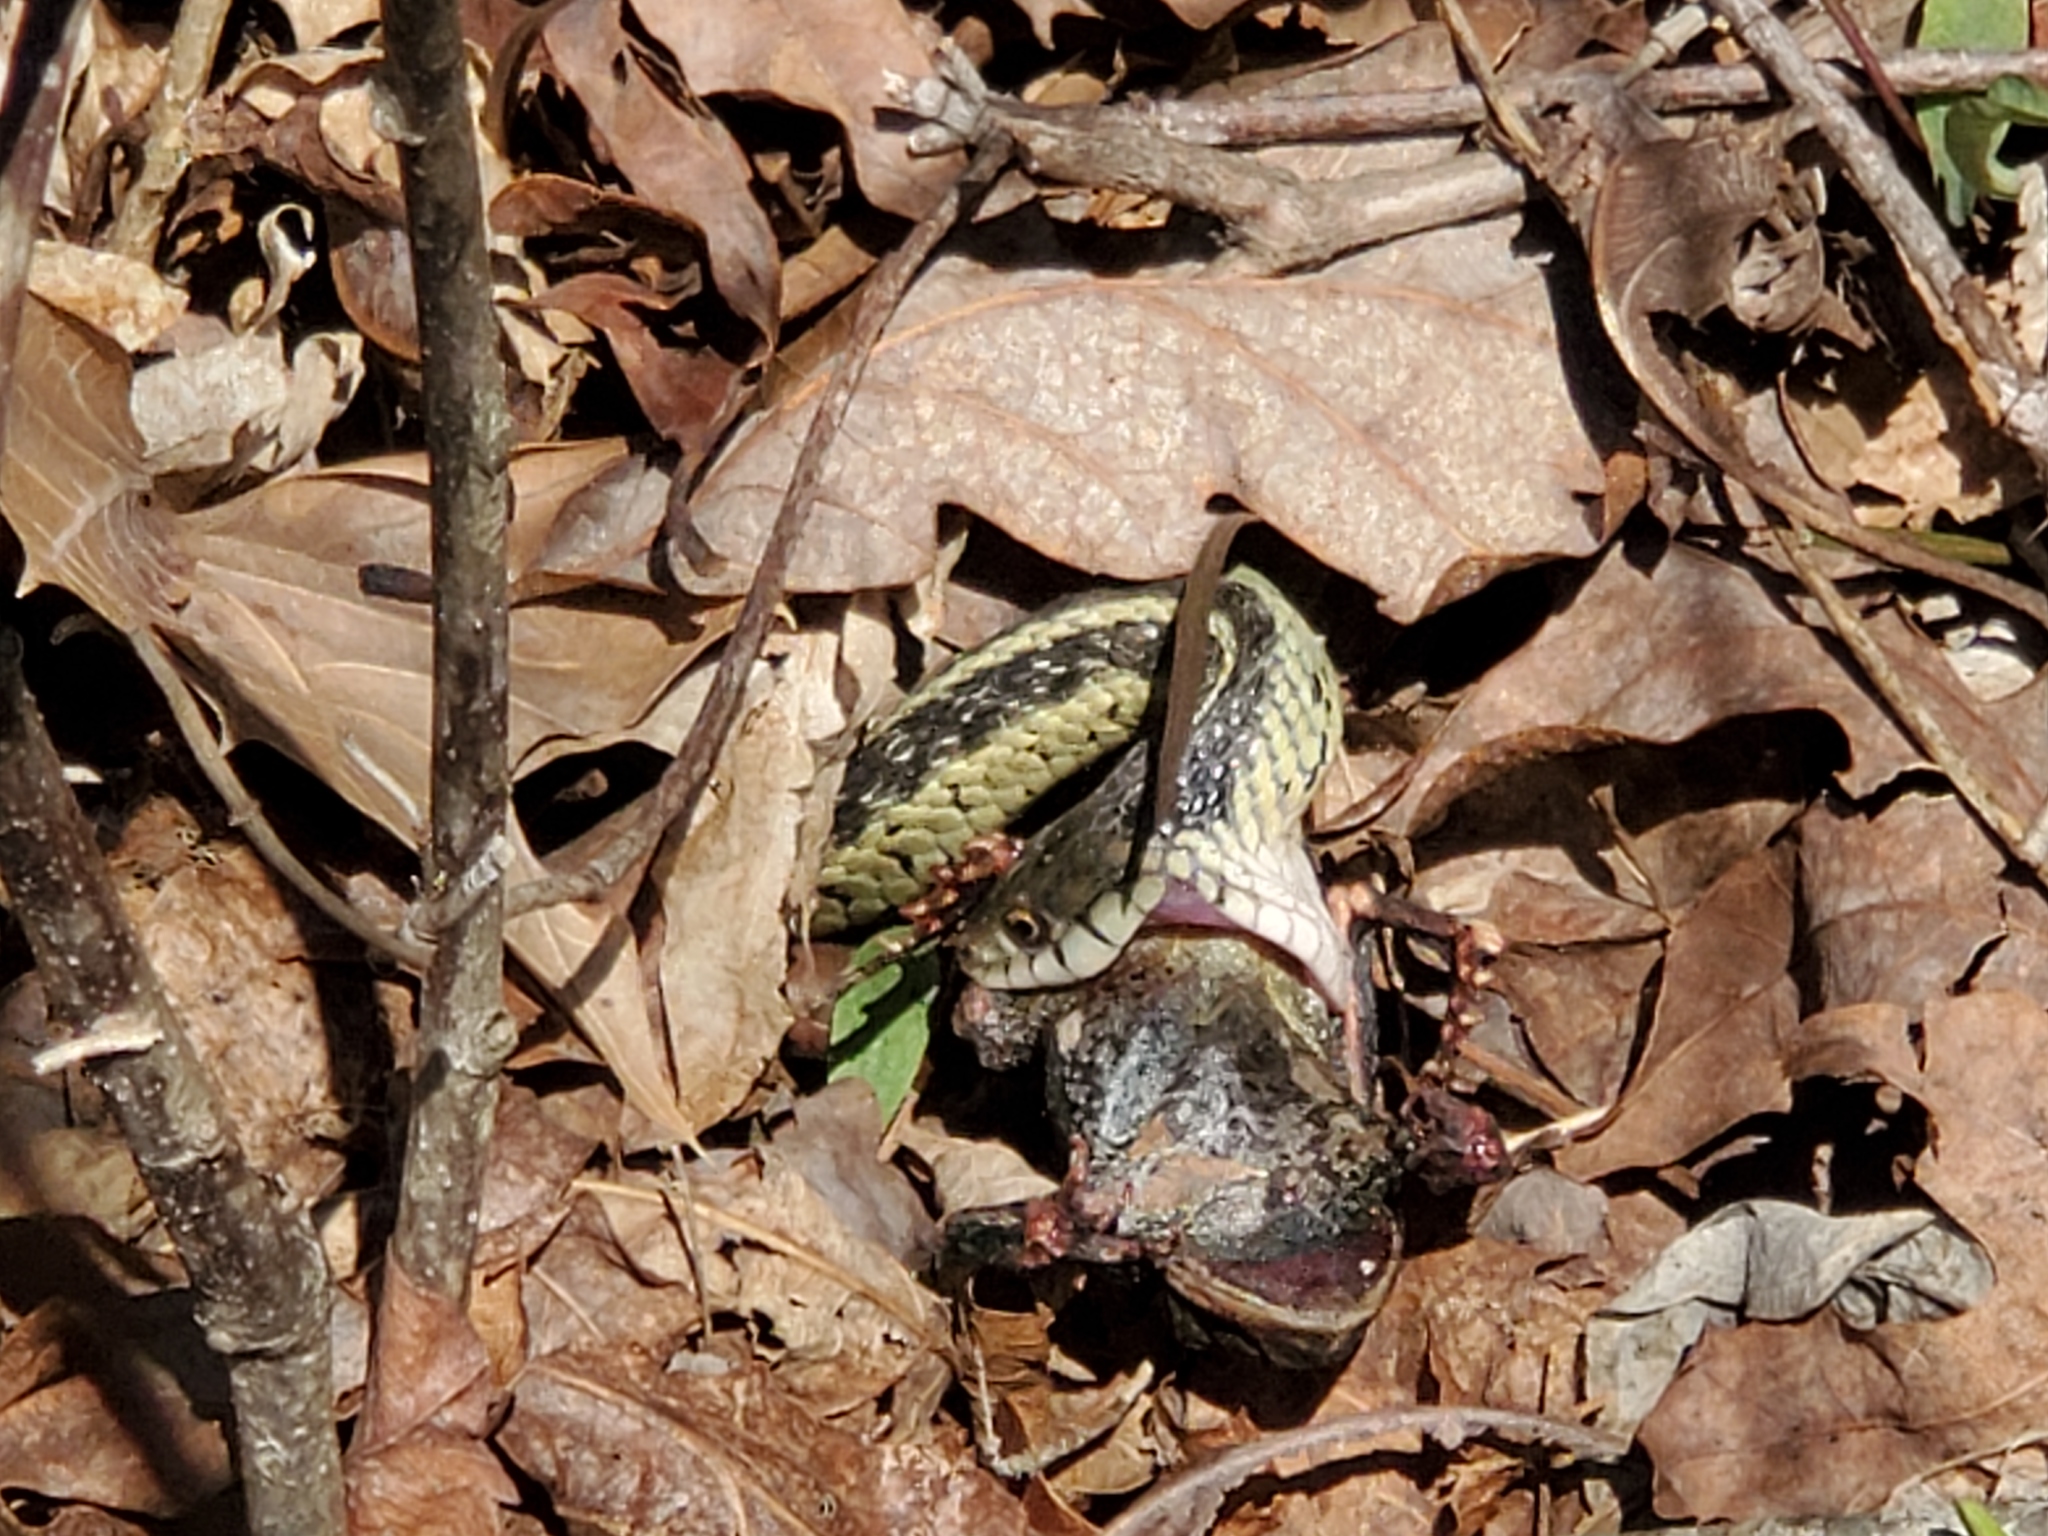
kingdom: Animalia
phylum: Chordata
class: Squamata
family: Colubridae
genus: Thamnophis
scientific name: Thamnophis sirtalis
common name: Common garter snake
